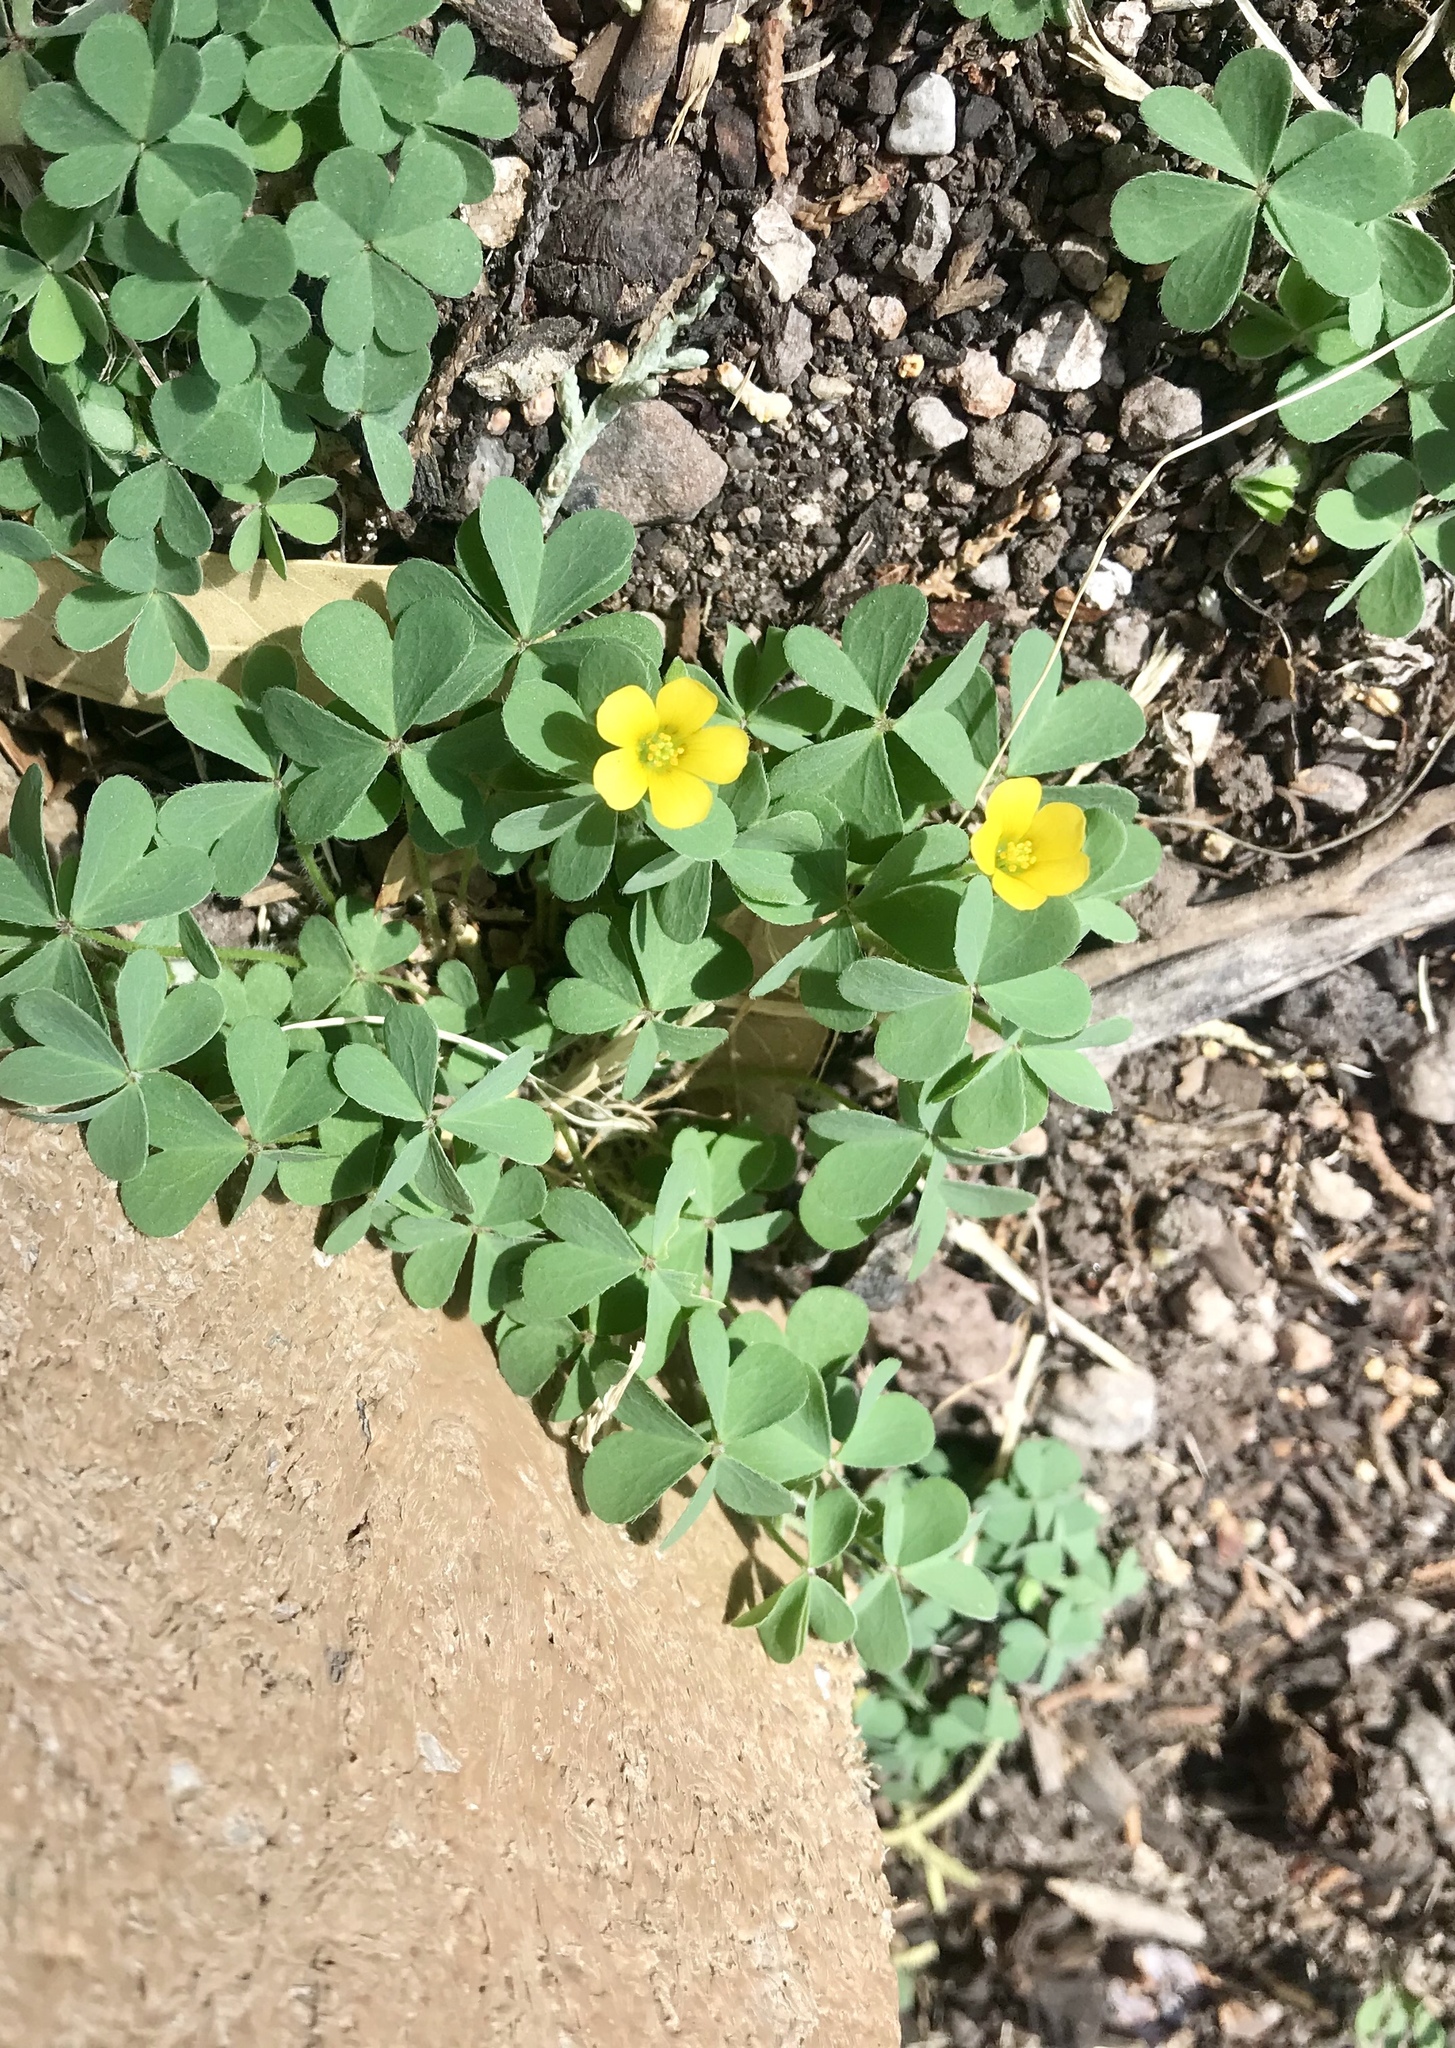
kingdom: Plantae
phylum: Tracheophyta
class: Magnoliopsida
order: Oxalidales
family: Oxalidaceae
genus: Oxalis
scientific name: Oxalis corniculata
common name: Procumbent yellow-sorrel
